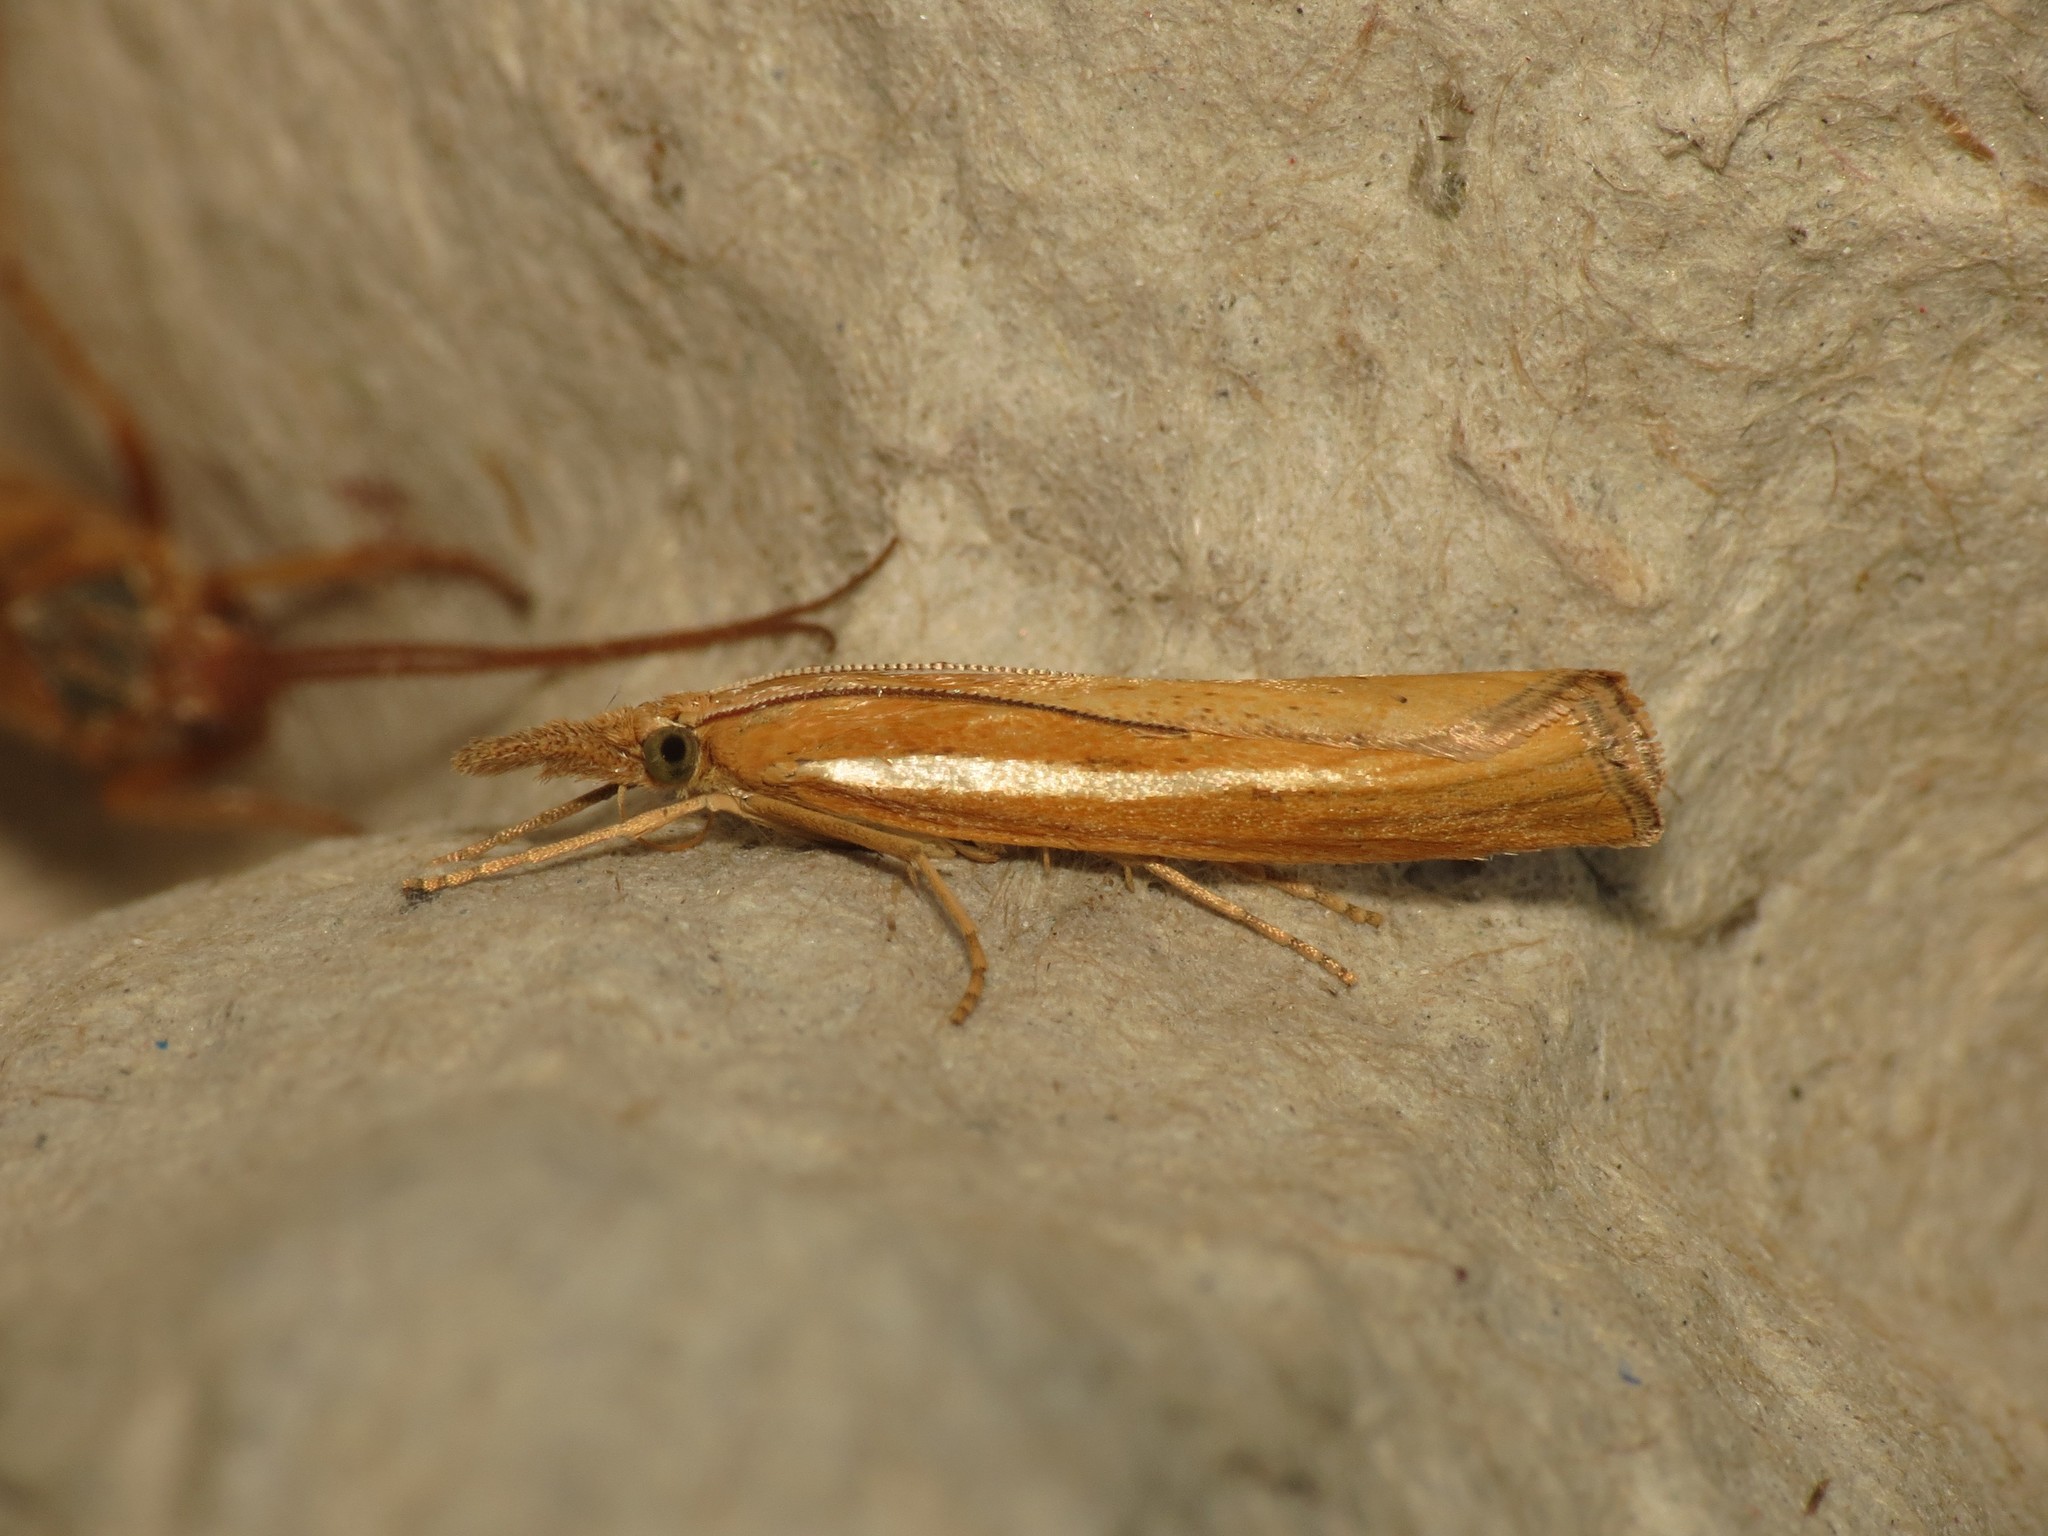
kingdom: Animalia
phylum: Arthropoda
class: Insecta
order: Lepidoptera
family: Crambidae
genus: Agriphila
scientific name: Agriphila tristellus
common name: Common grass-veneer
